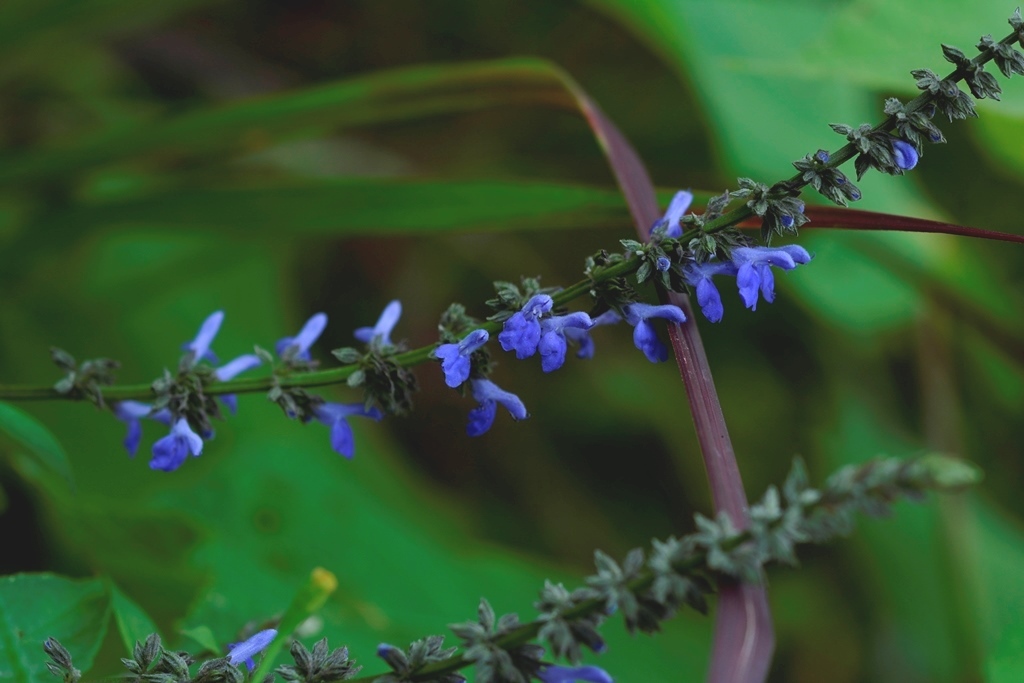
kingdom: Plantae
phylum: Tracheophyta
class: Magnoliopsida
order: Lamiales
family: Lamiaceae
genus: Salvia
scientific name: Salvia connivens
